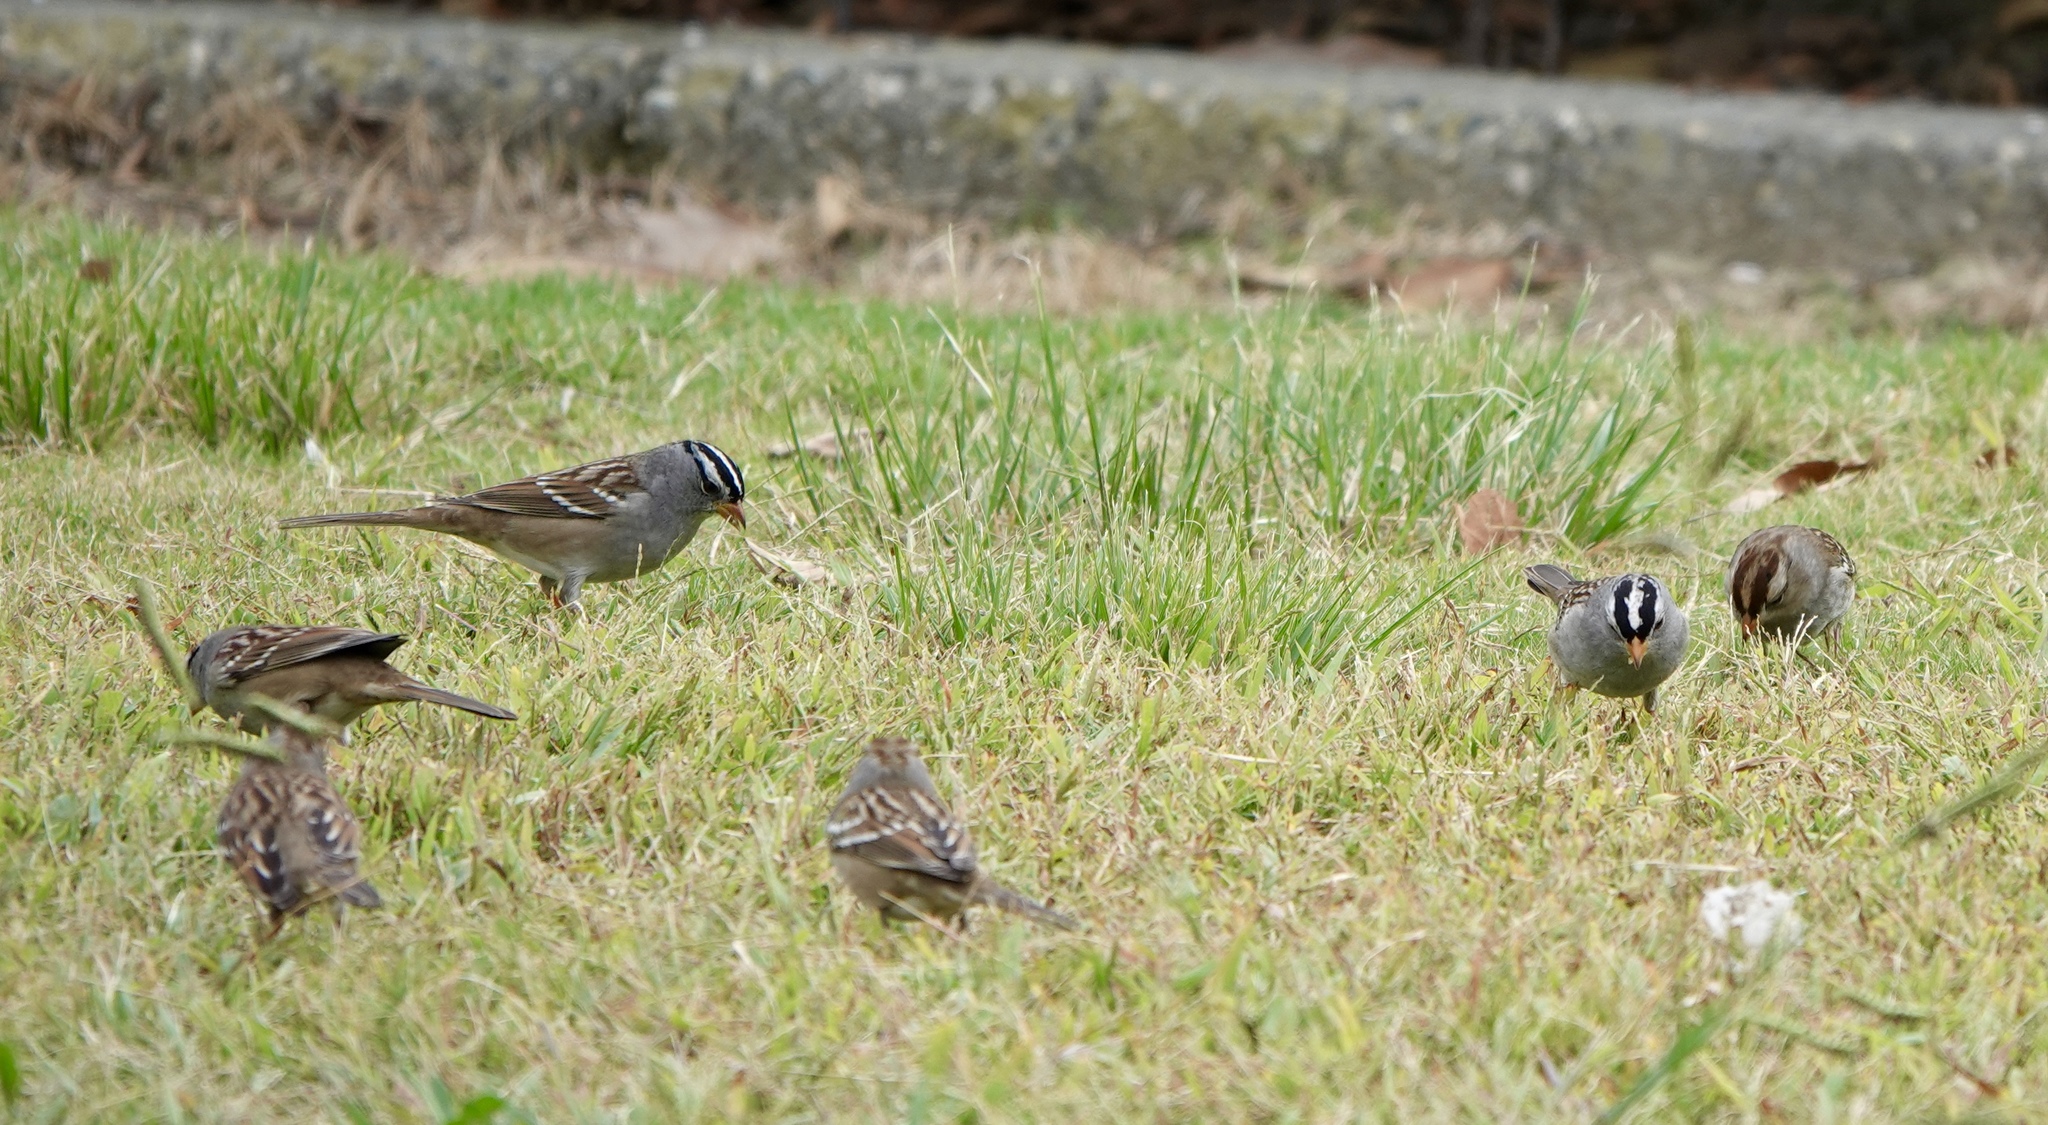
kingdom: Animalia
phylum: Chordata
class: Aves
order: Passeriformes
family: Passerellidae
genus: Zonotrichia
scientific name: Zonotrichia leucophrys
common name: White-crowned sparrow
